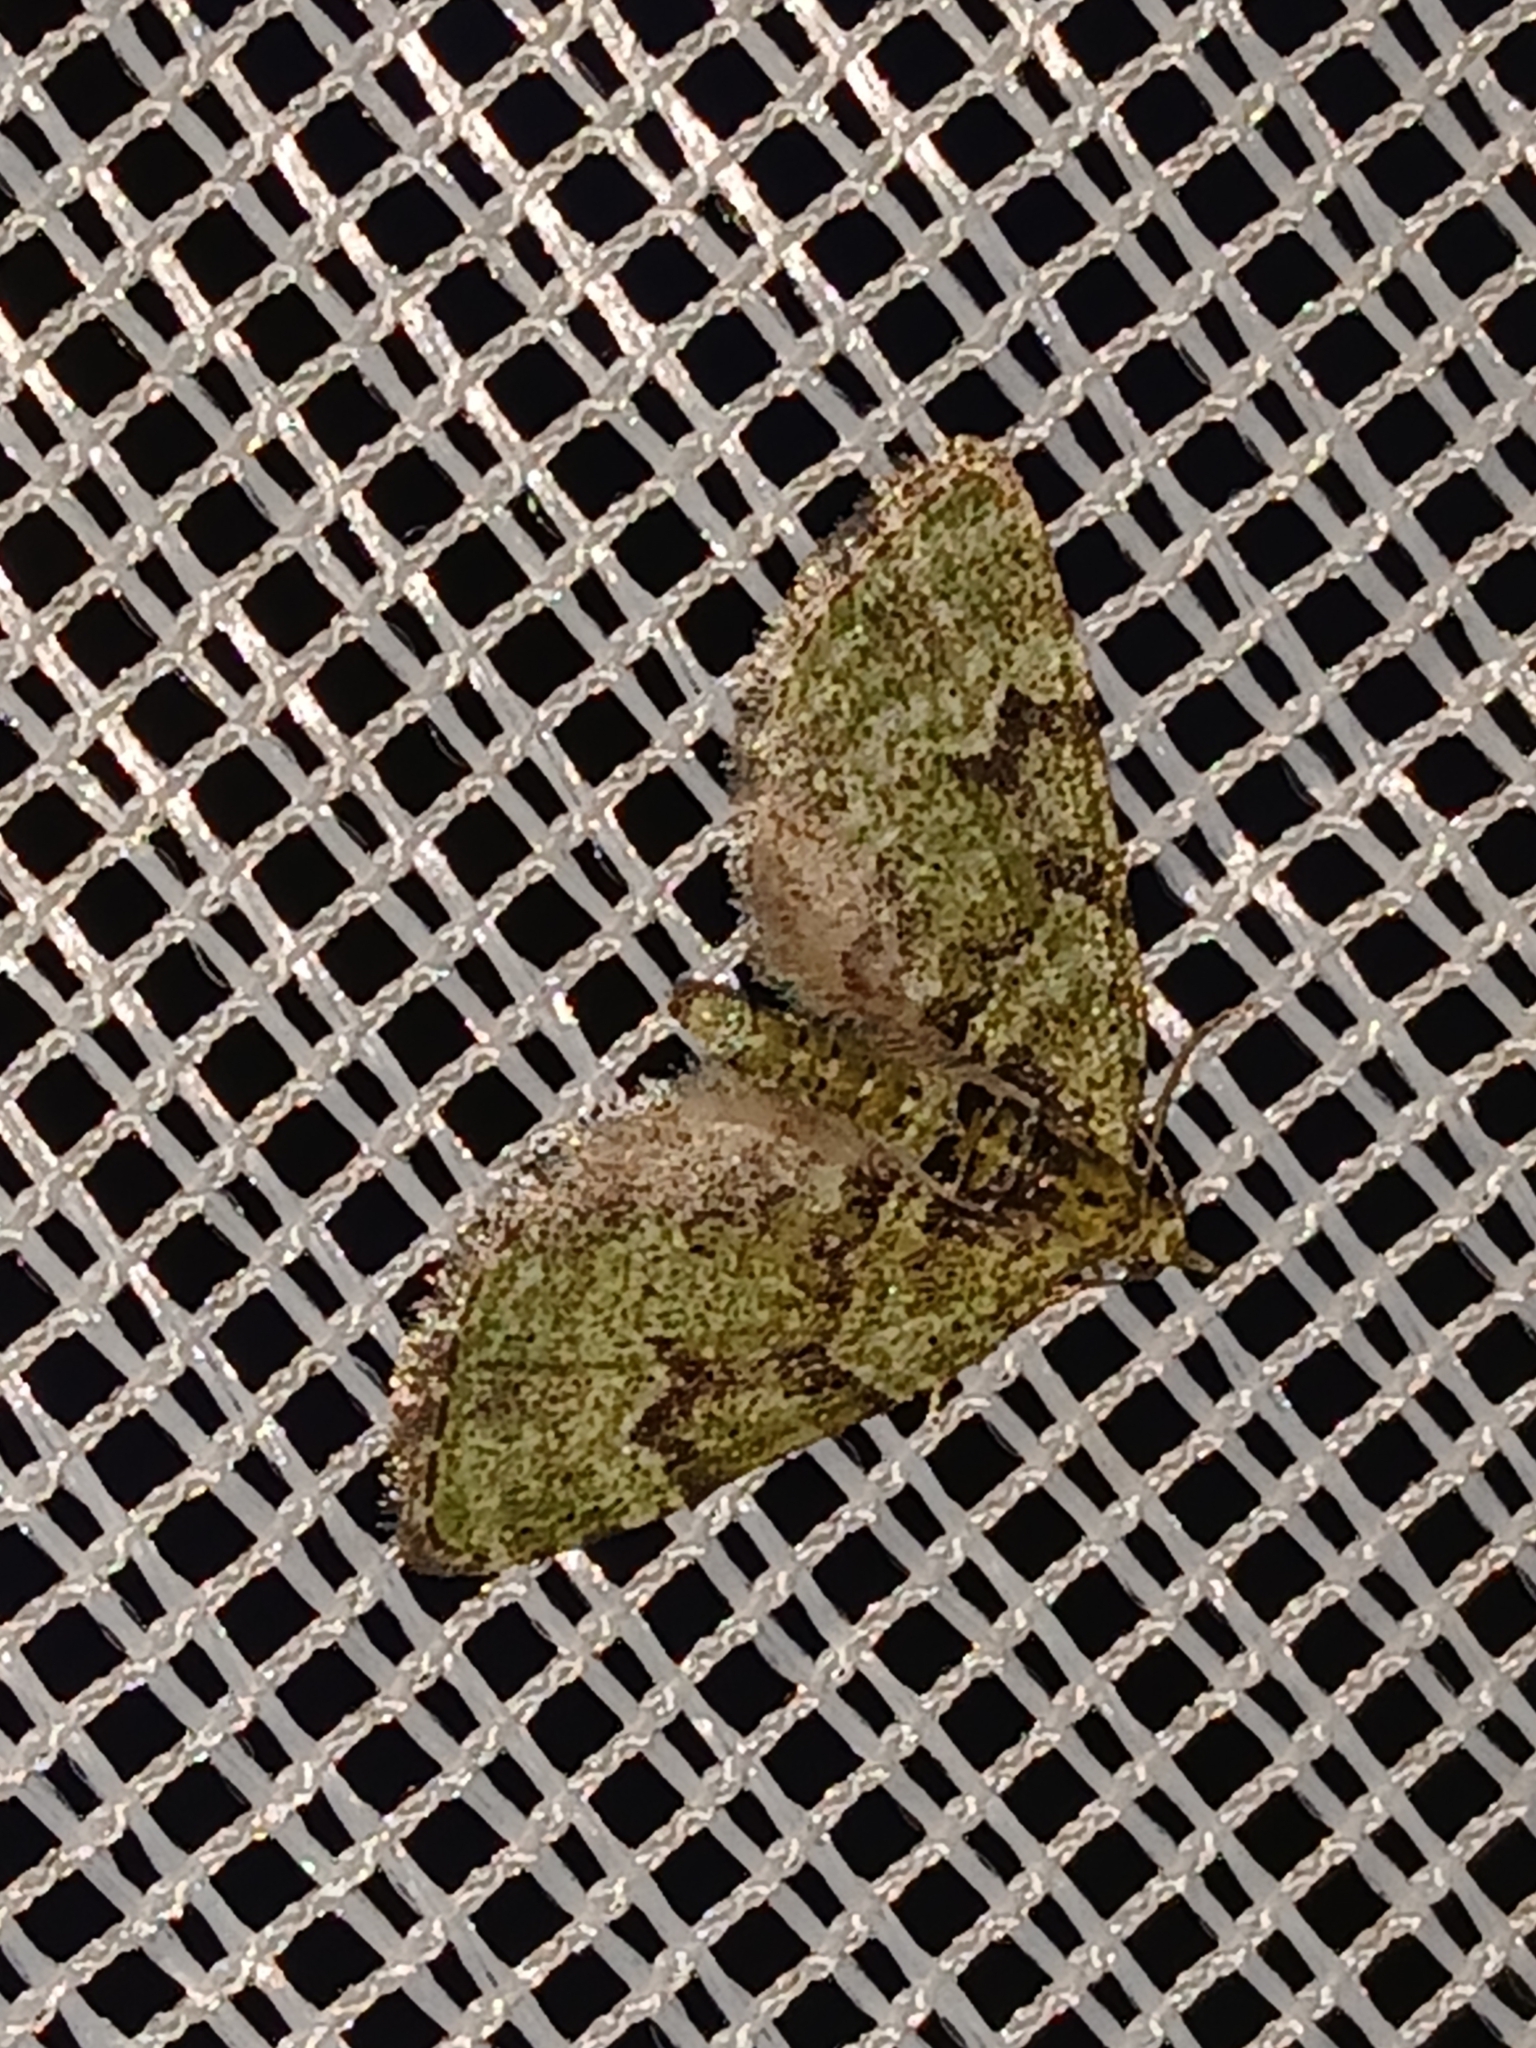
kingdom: Animalia
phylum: Arthropoda
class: Insecta
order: Lepidoptera
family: Geometridae
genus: Chloroclystis
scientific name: Chloroclystis v-ata
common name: V-pug
